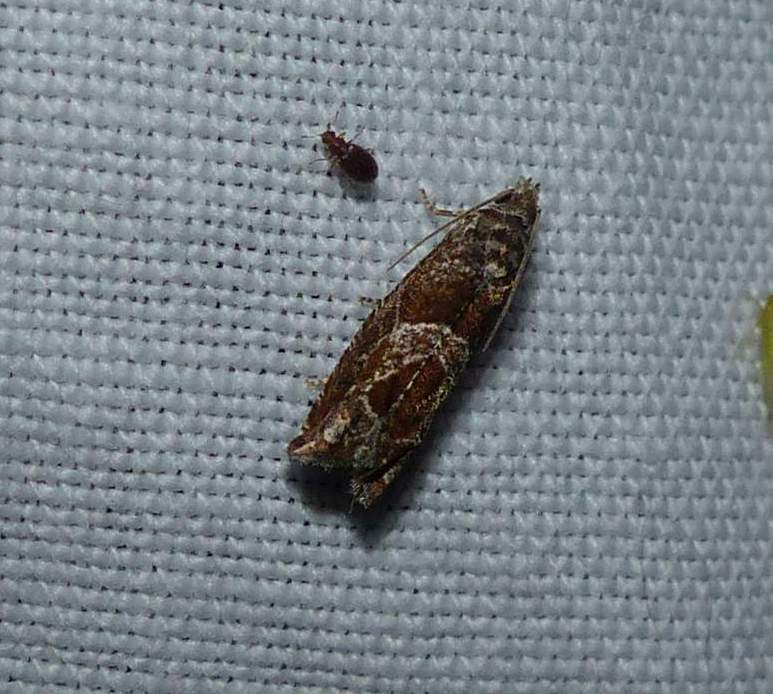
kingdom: Animalia
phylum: Arthropoda
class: Insecta
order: Lepidoptera
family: Tortricidae
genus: Sonia
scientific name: Sonia canadana
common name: Canadian sonia moth
